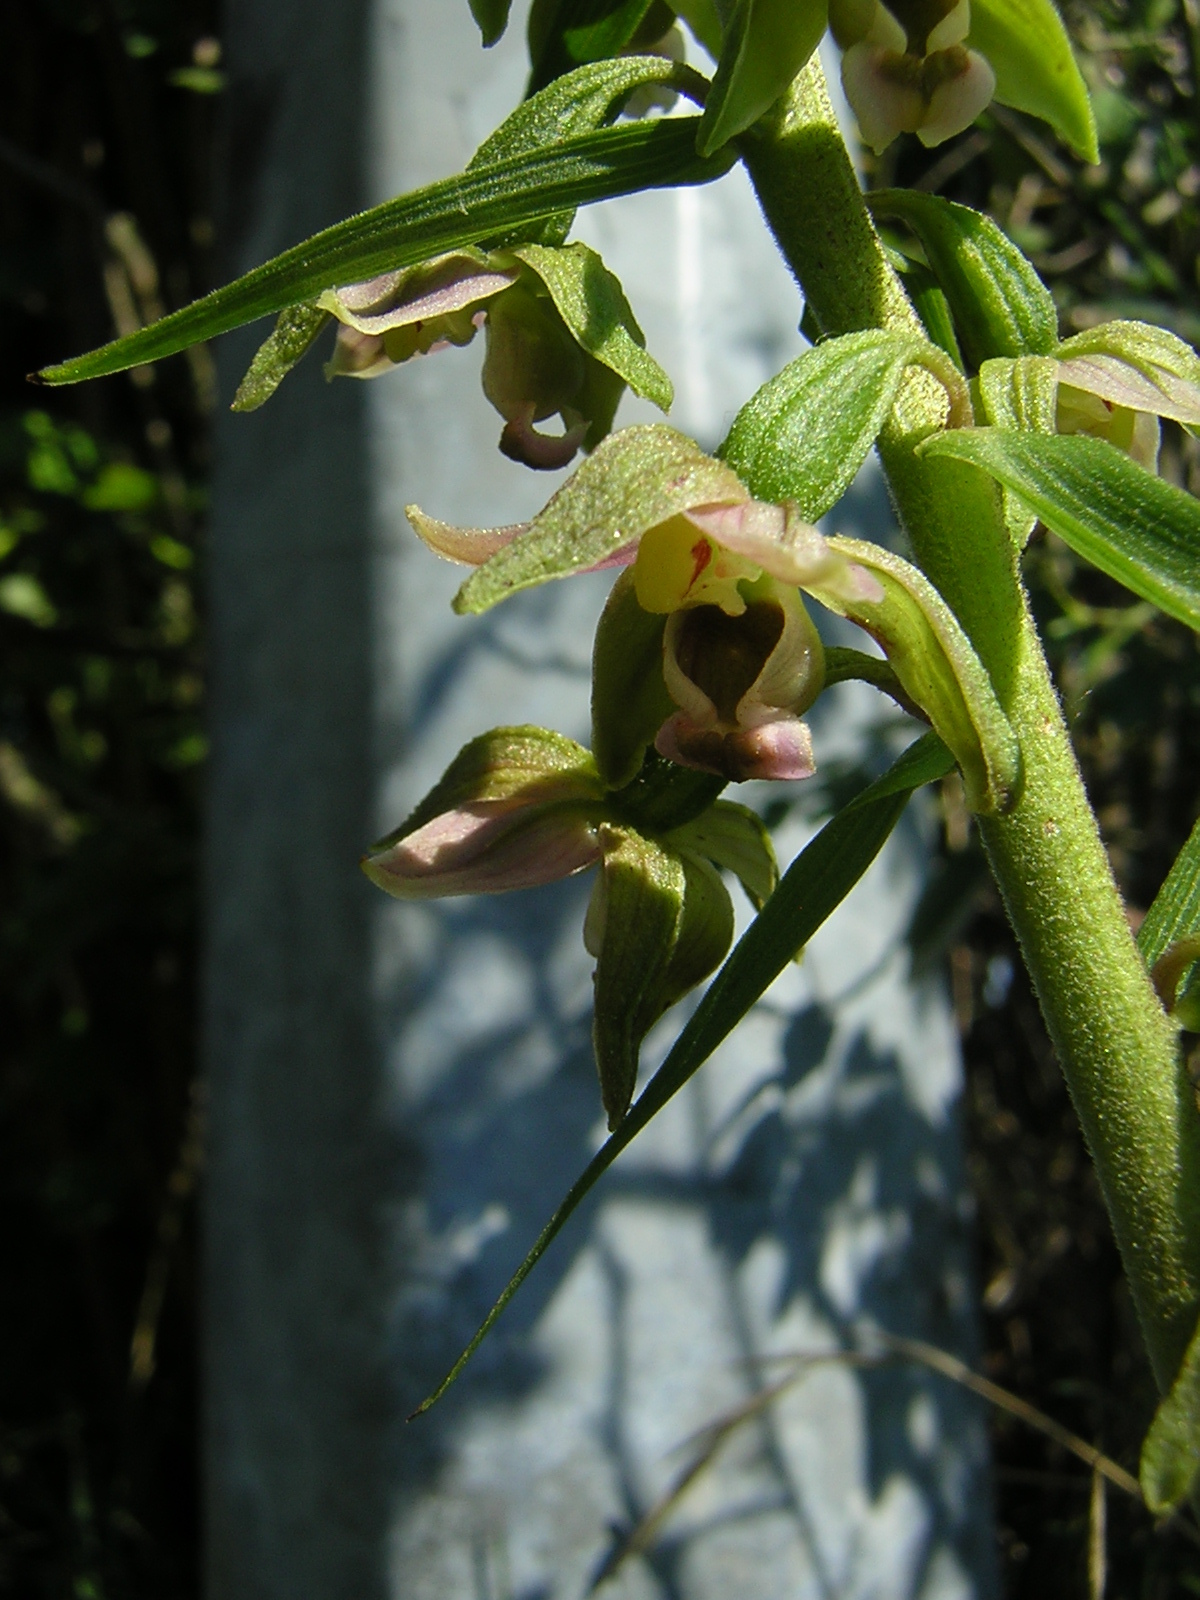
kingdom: Plantae
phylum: Tracheophyta
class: Liliopsida
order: Asparagales
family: Orchidaceae
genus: Epipactis
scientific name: Epipactis helleborine
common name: Broad-leaved helleborine
